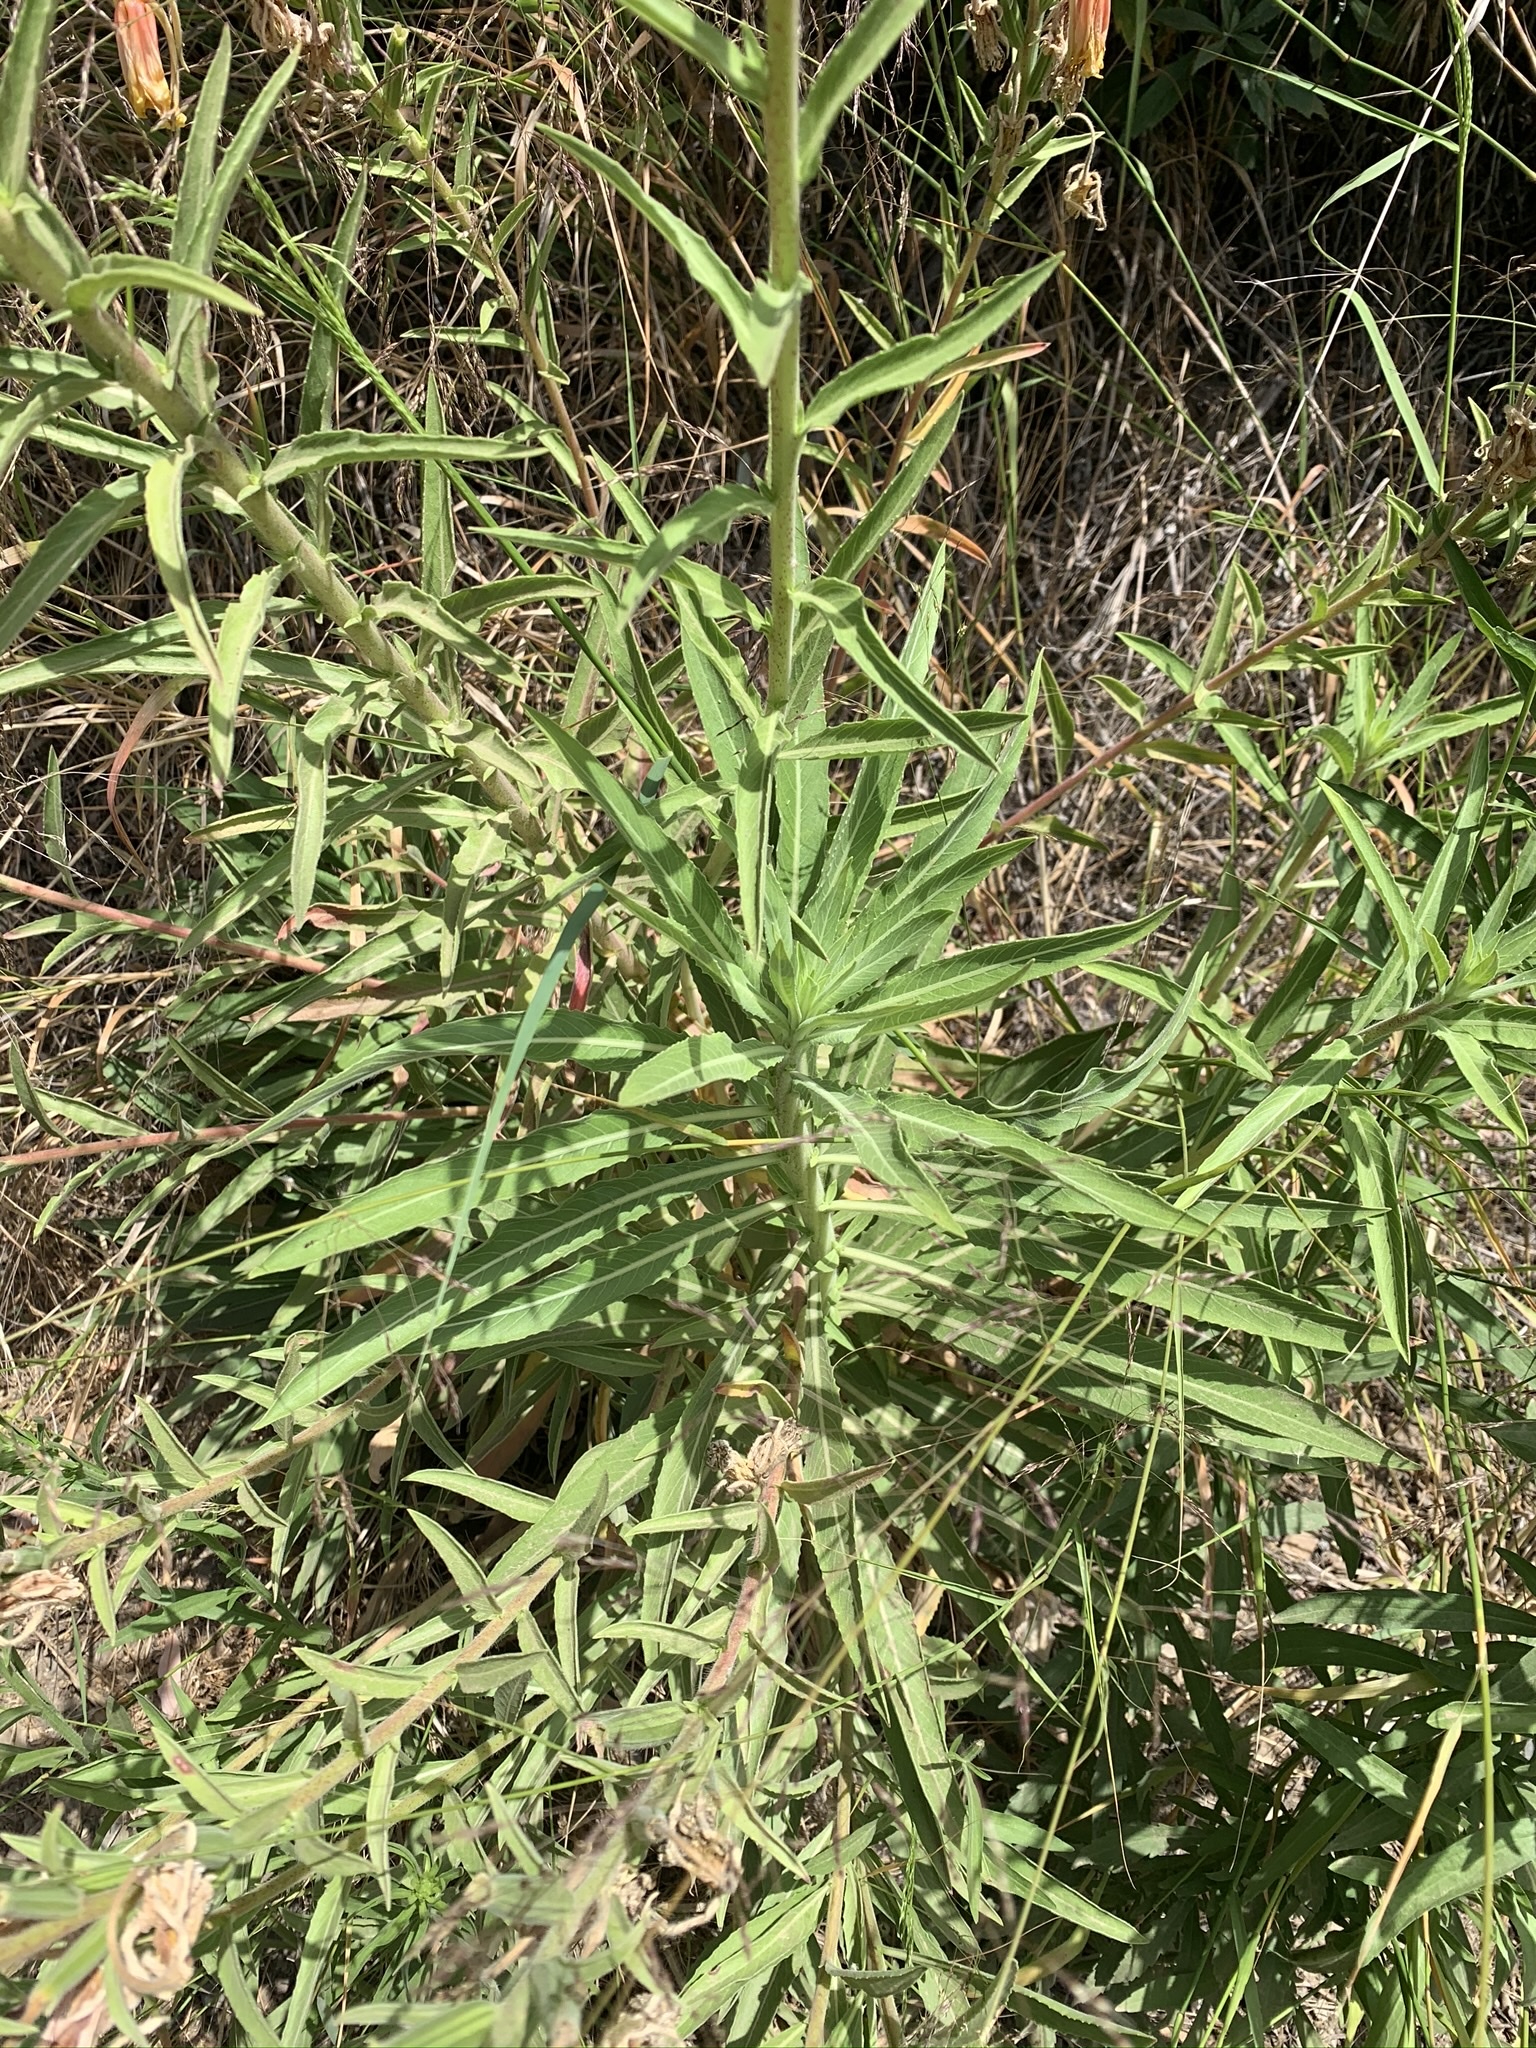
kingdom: Plantae
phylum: Tracheophyta
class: Magnoliopsida
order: Myrtales
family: Onagraceae
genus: Oenothera
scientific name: Oenothera elata
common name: Hooker's evening-primrose
